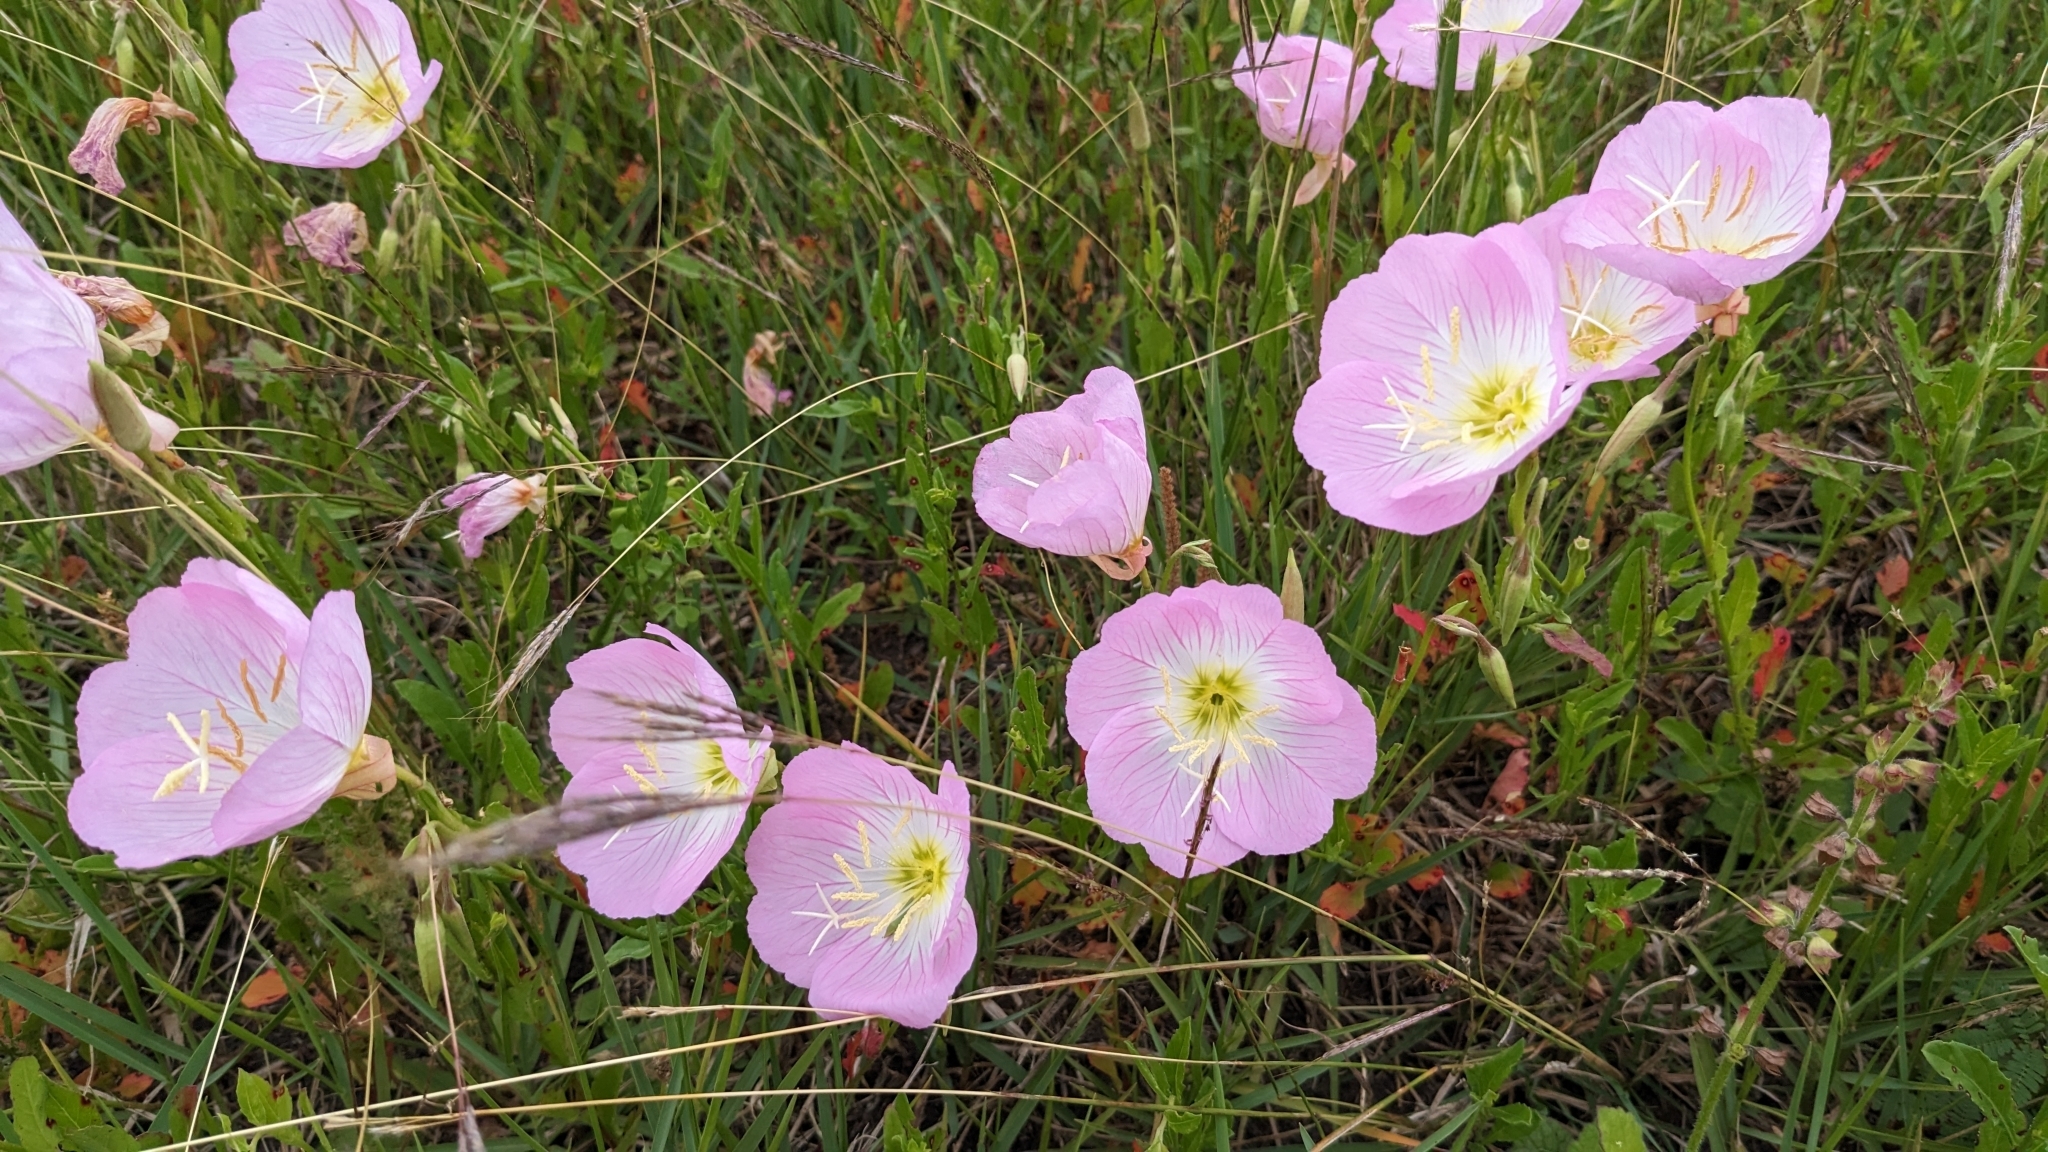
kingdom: Plantae
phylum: Tracheophyta
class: Magnoliopsida
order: Myrtales
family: Onagraceae
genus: Oenothera
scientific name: Oenothera speciosa
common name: White evening-primrose
